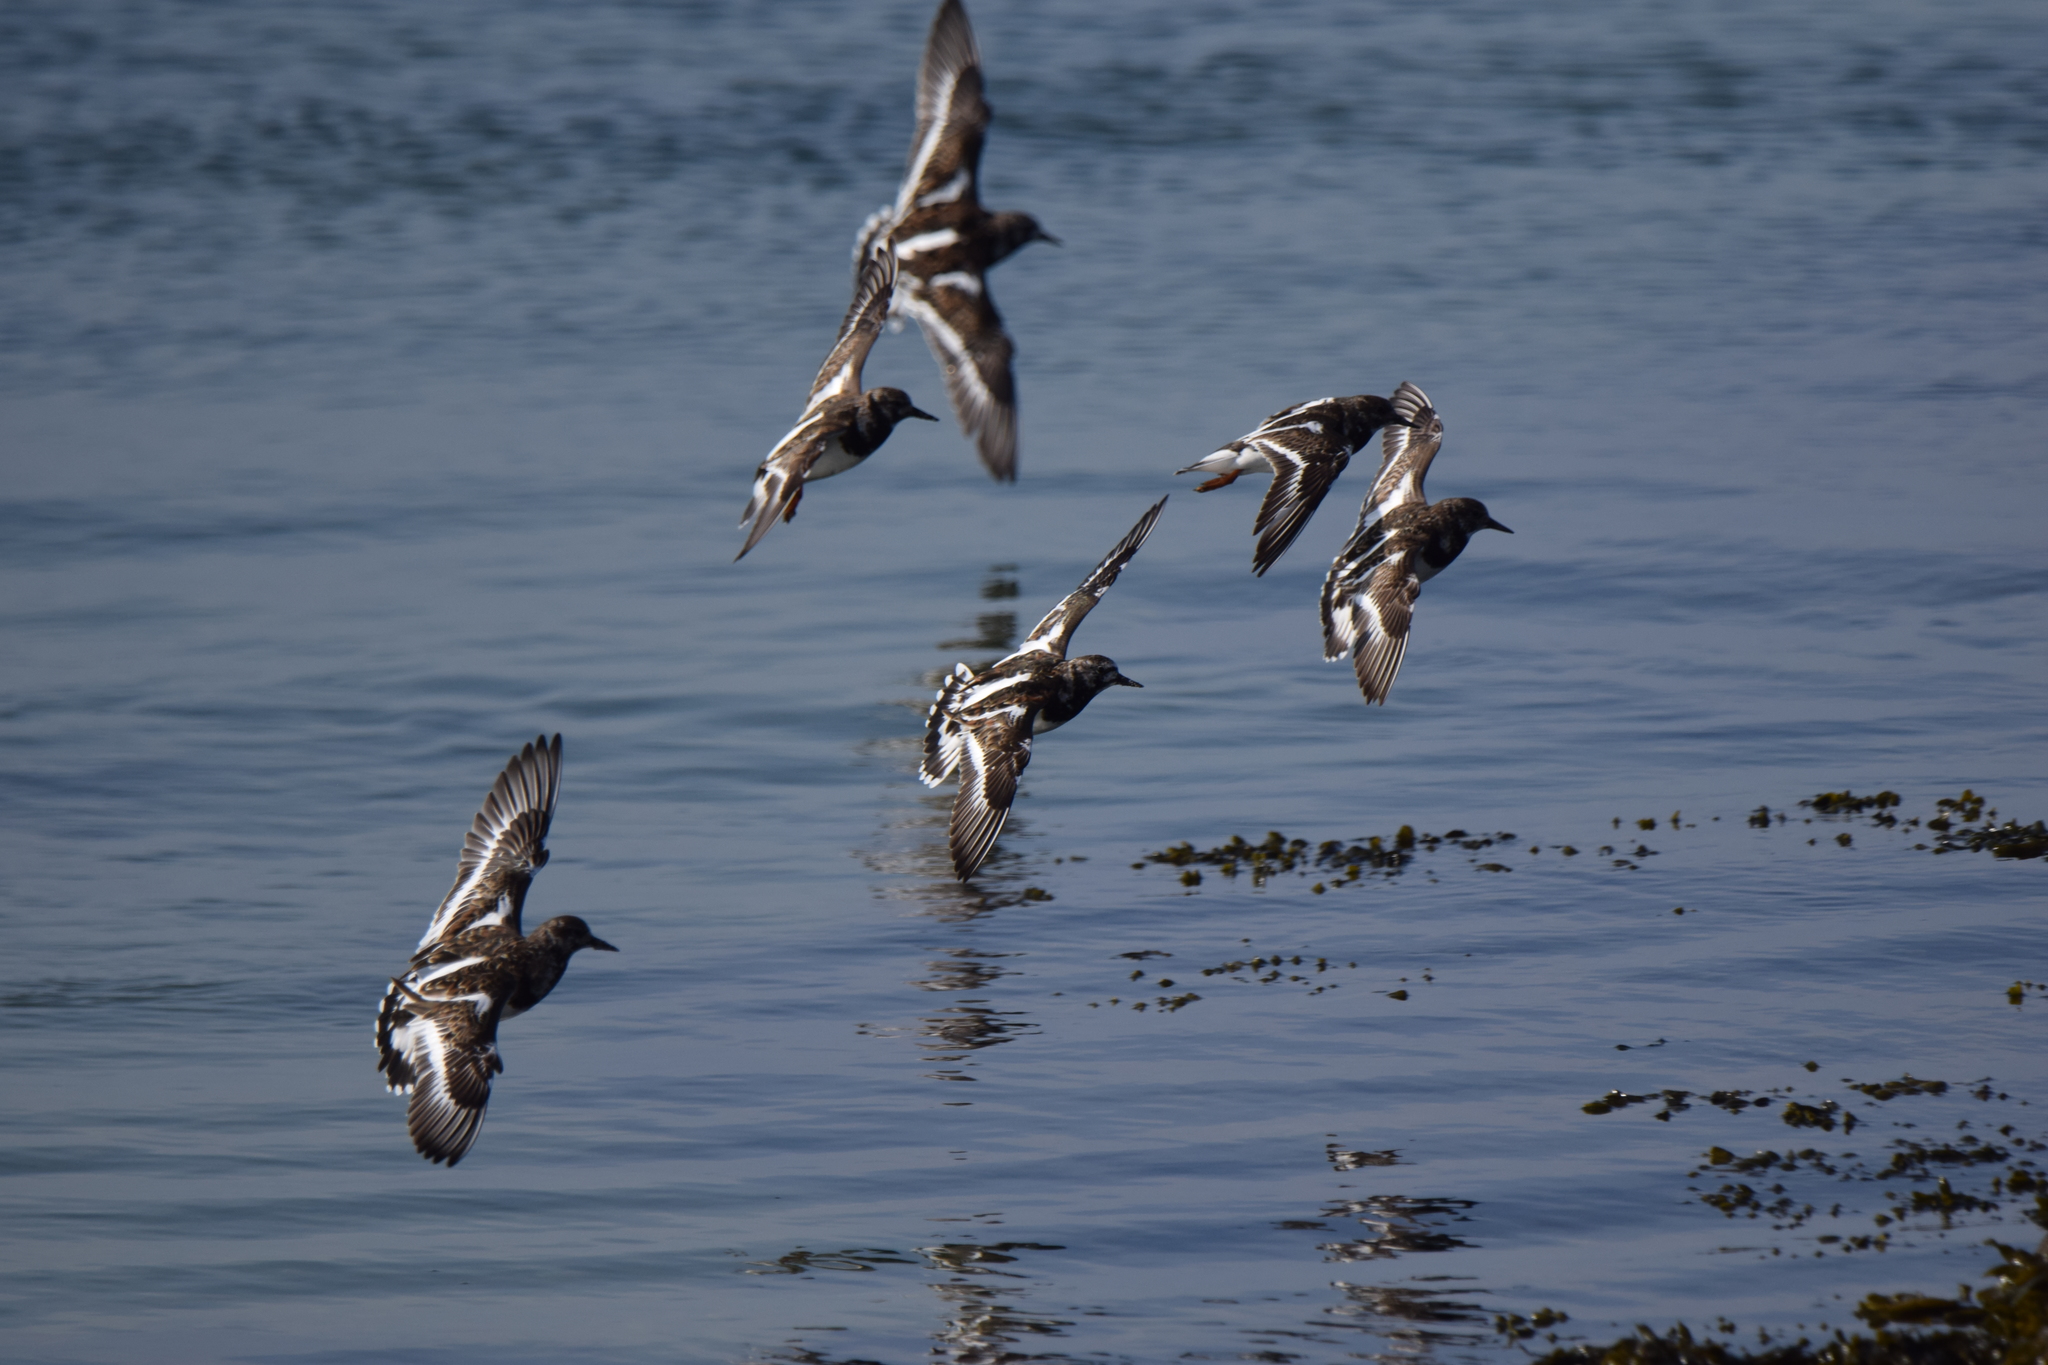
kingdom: Animalia
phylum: Chordata
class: Aves
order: Charadriiformes
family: Scolopacidae
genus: Arenaria
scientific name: Arenaria interpres
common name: Ruddy turnstone
